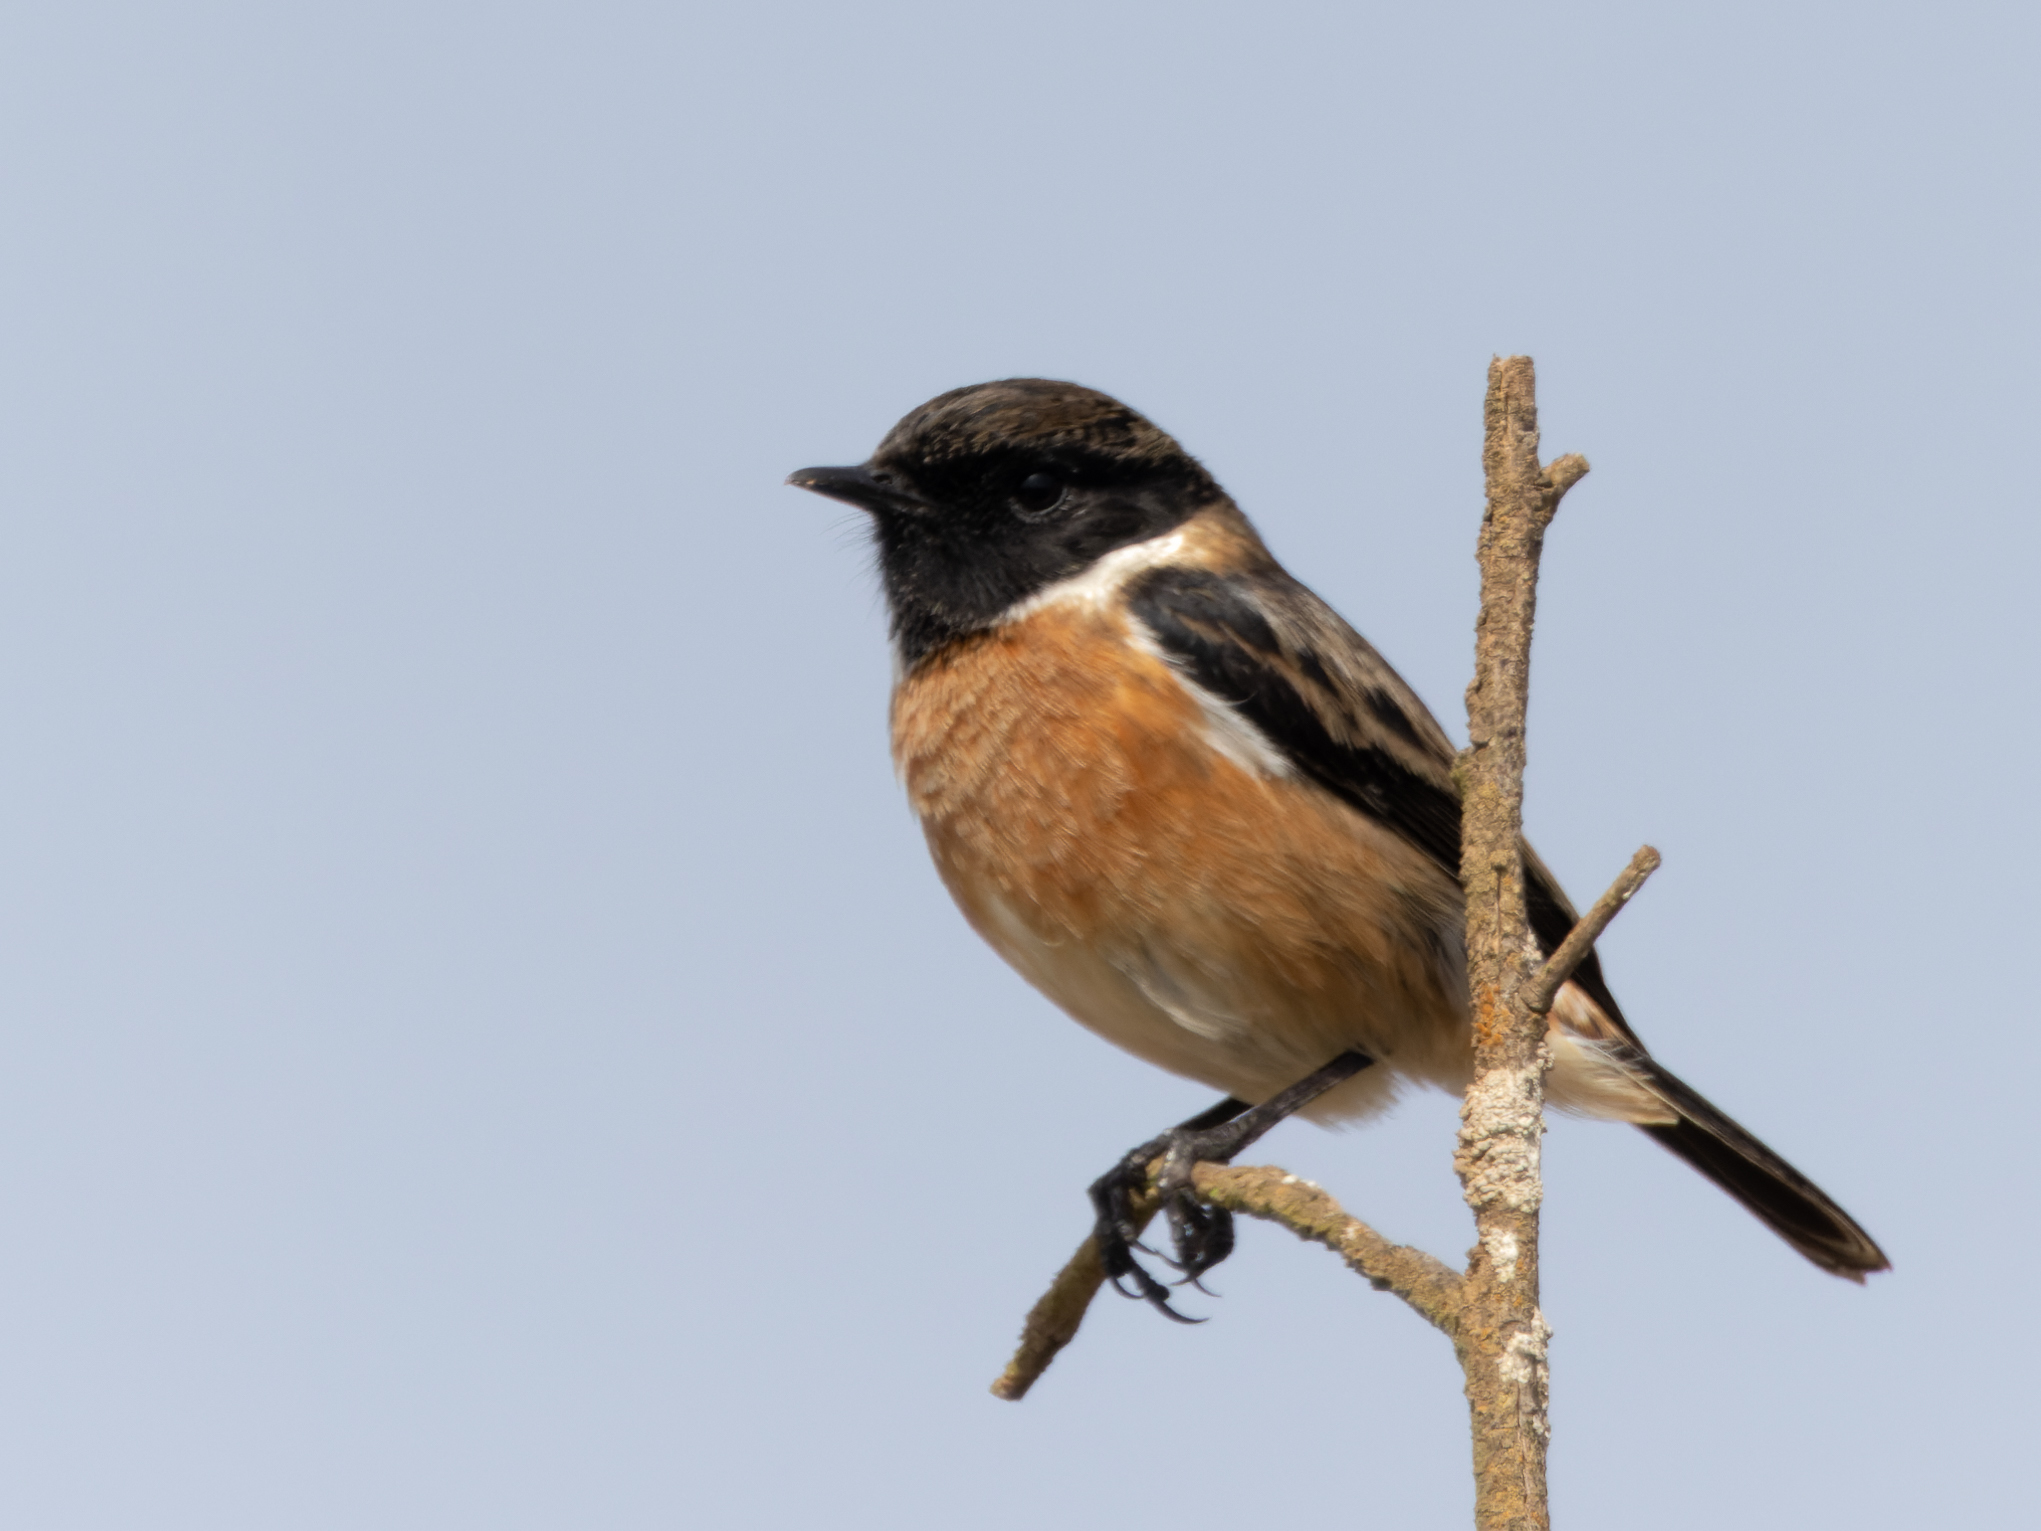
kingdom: Animalia
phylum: Chordata
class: Aves
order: Passeriformes
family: Muscicapidae
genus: Saxicola
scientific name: Saxicola rubicola
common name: European stonechat
